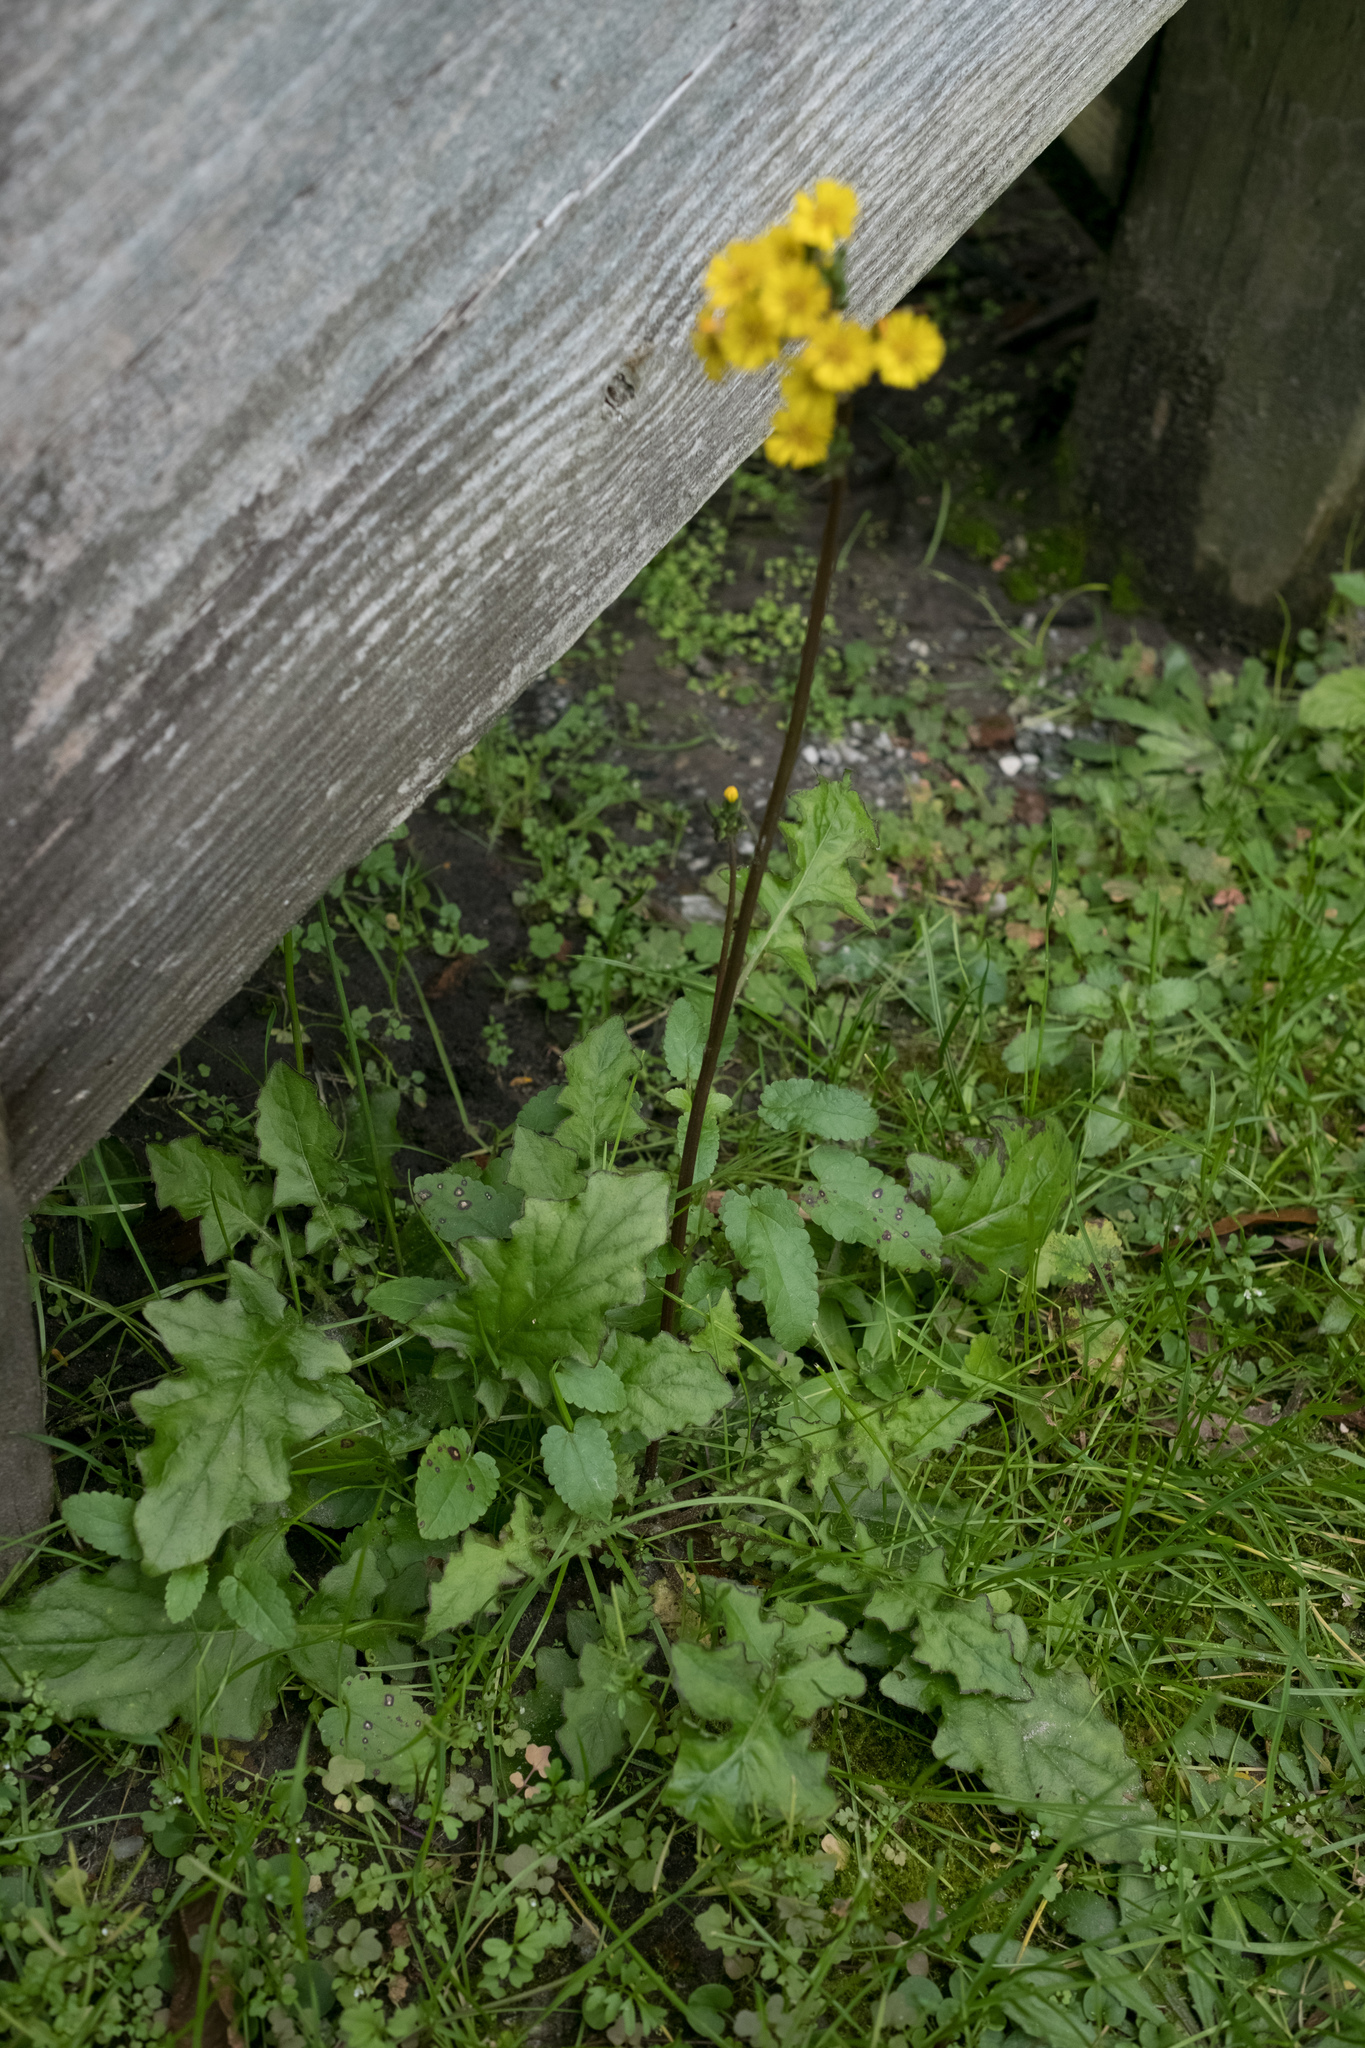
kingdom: Plantae
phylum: Tracheophyta
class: Magnoliopsida
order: Asterales
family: Asteraceae
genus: Youngia
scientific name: Youngia japonica
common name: Oriental false hawksbeard
